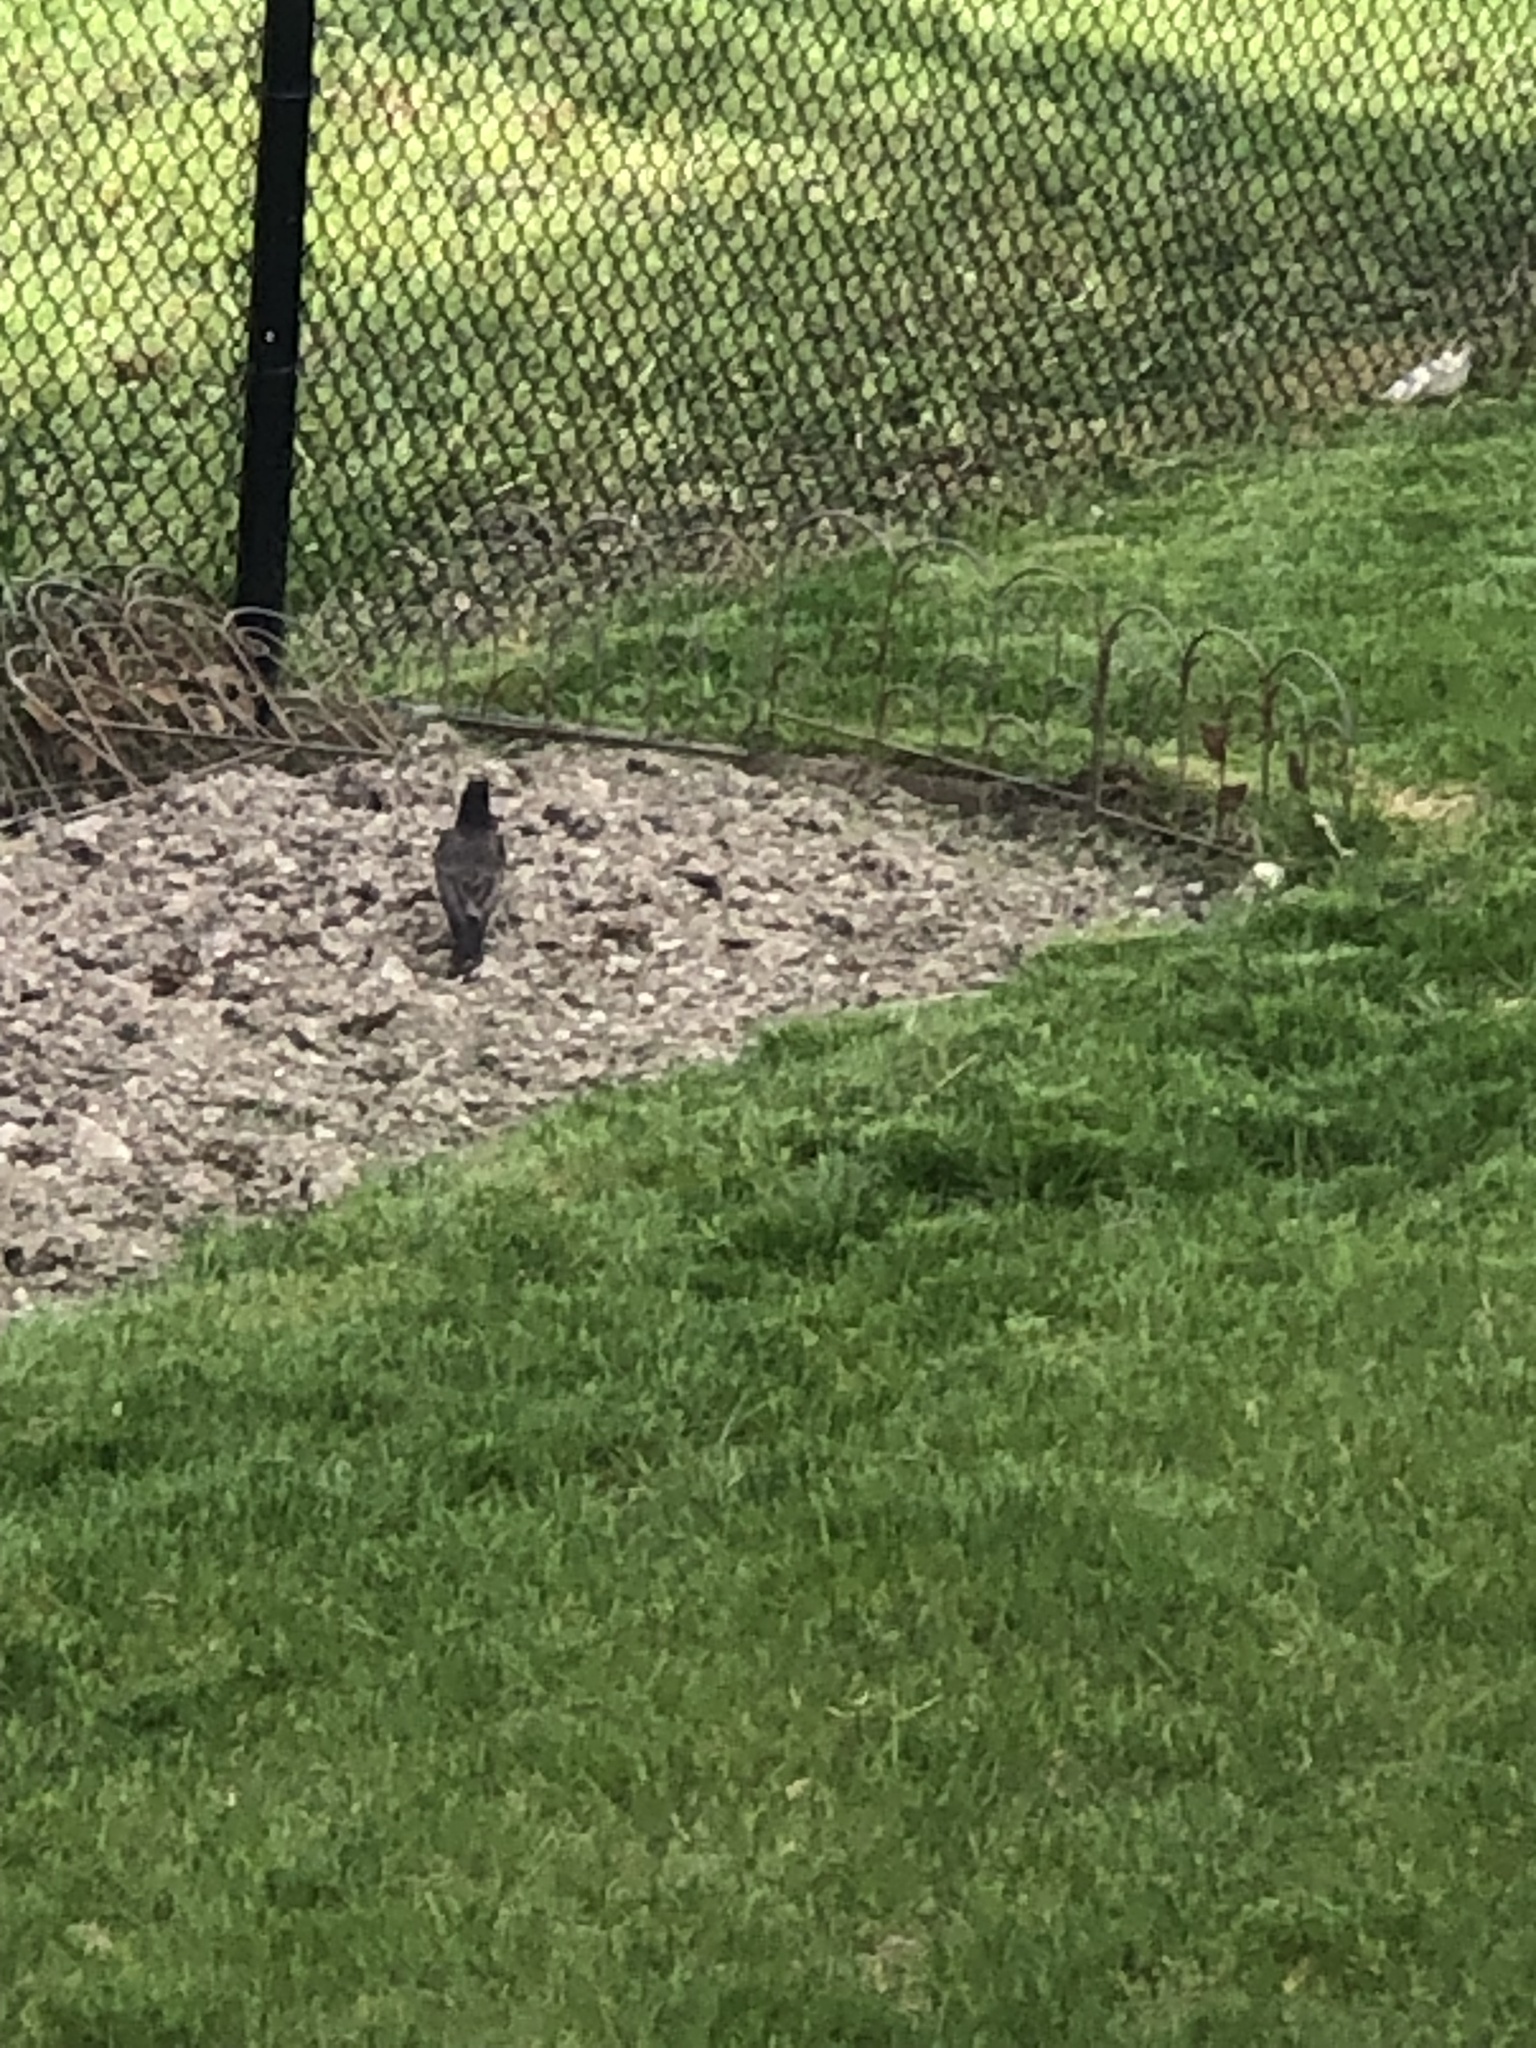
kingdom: Animalia
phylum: Chordata
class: Aves
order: Passeriformes
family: Turdidae
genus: Turdus
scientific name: Turdus migratorius
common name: American robin
